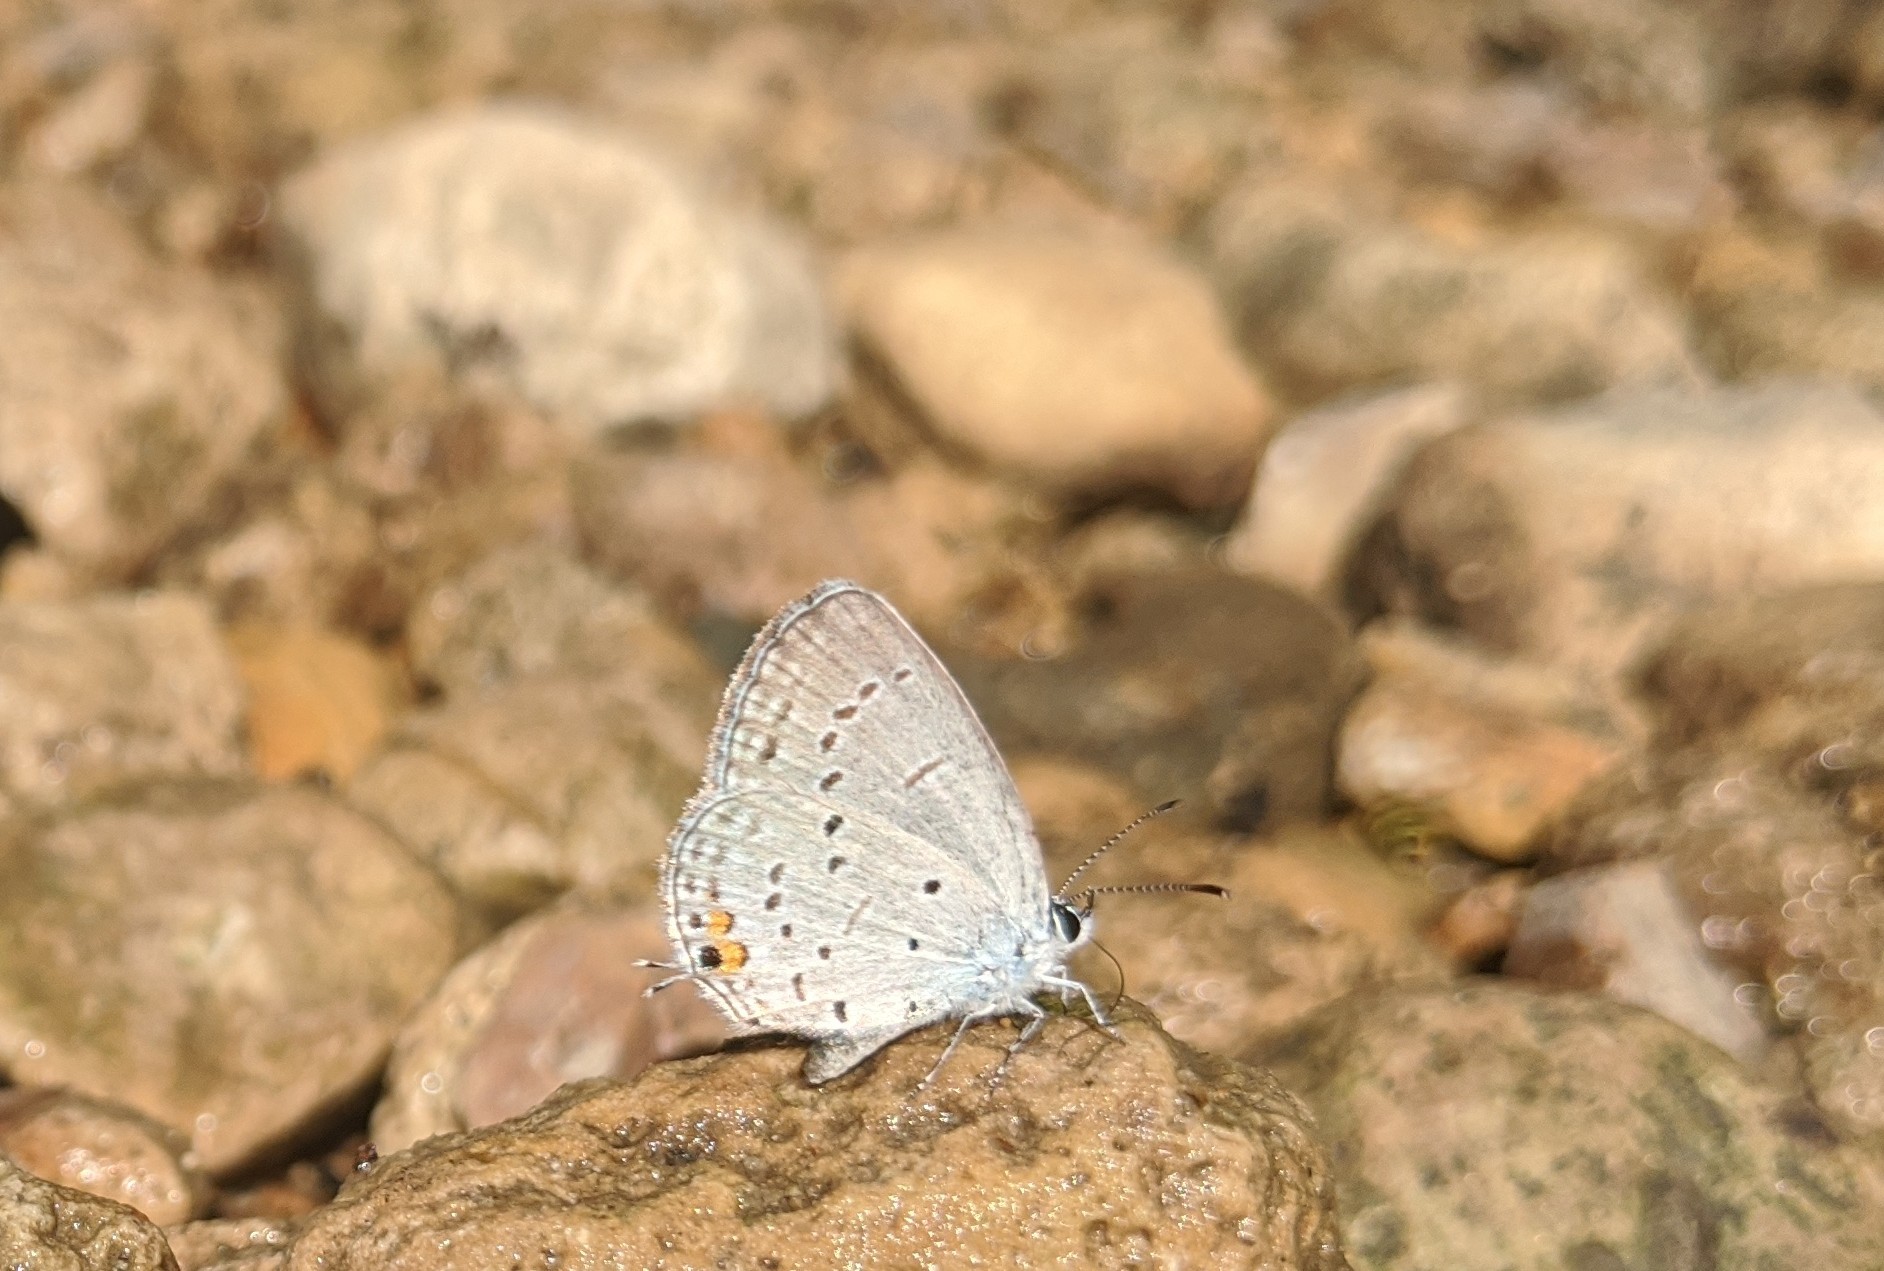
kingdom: Animalia
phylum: Arthropoda
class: Insecta
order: Lepidoptera
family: Lycaenidae
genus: Elkalyce
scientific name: Elkalyce comyntas
